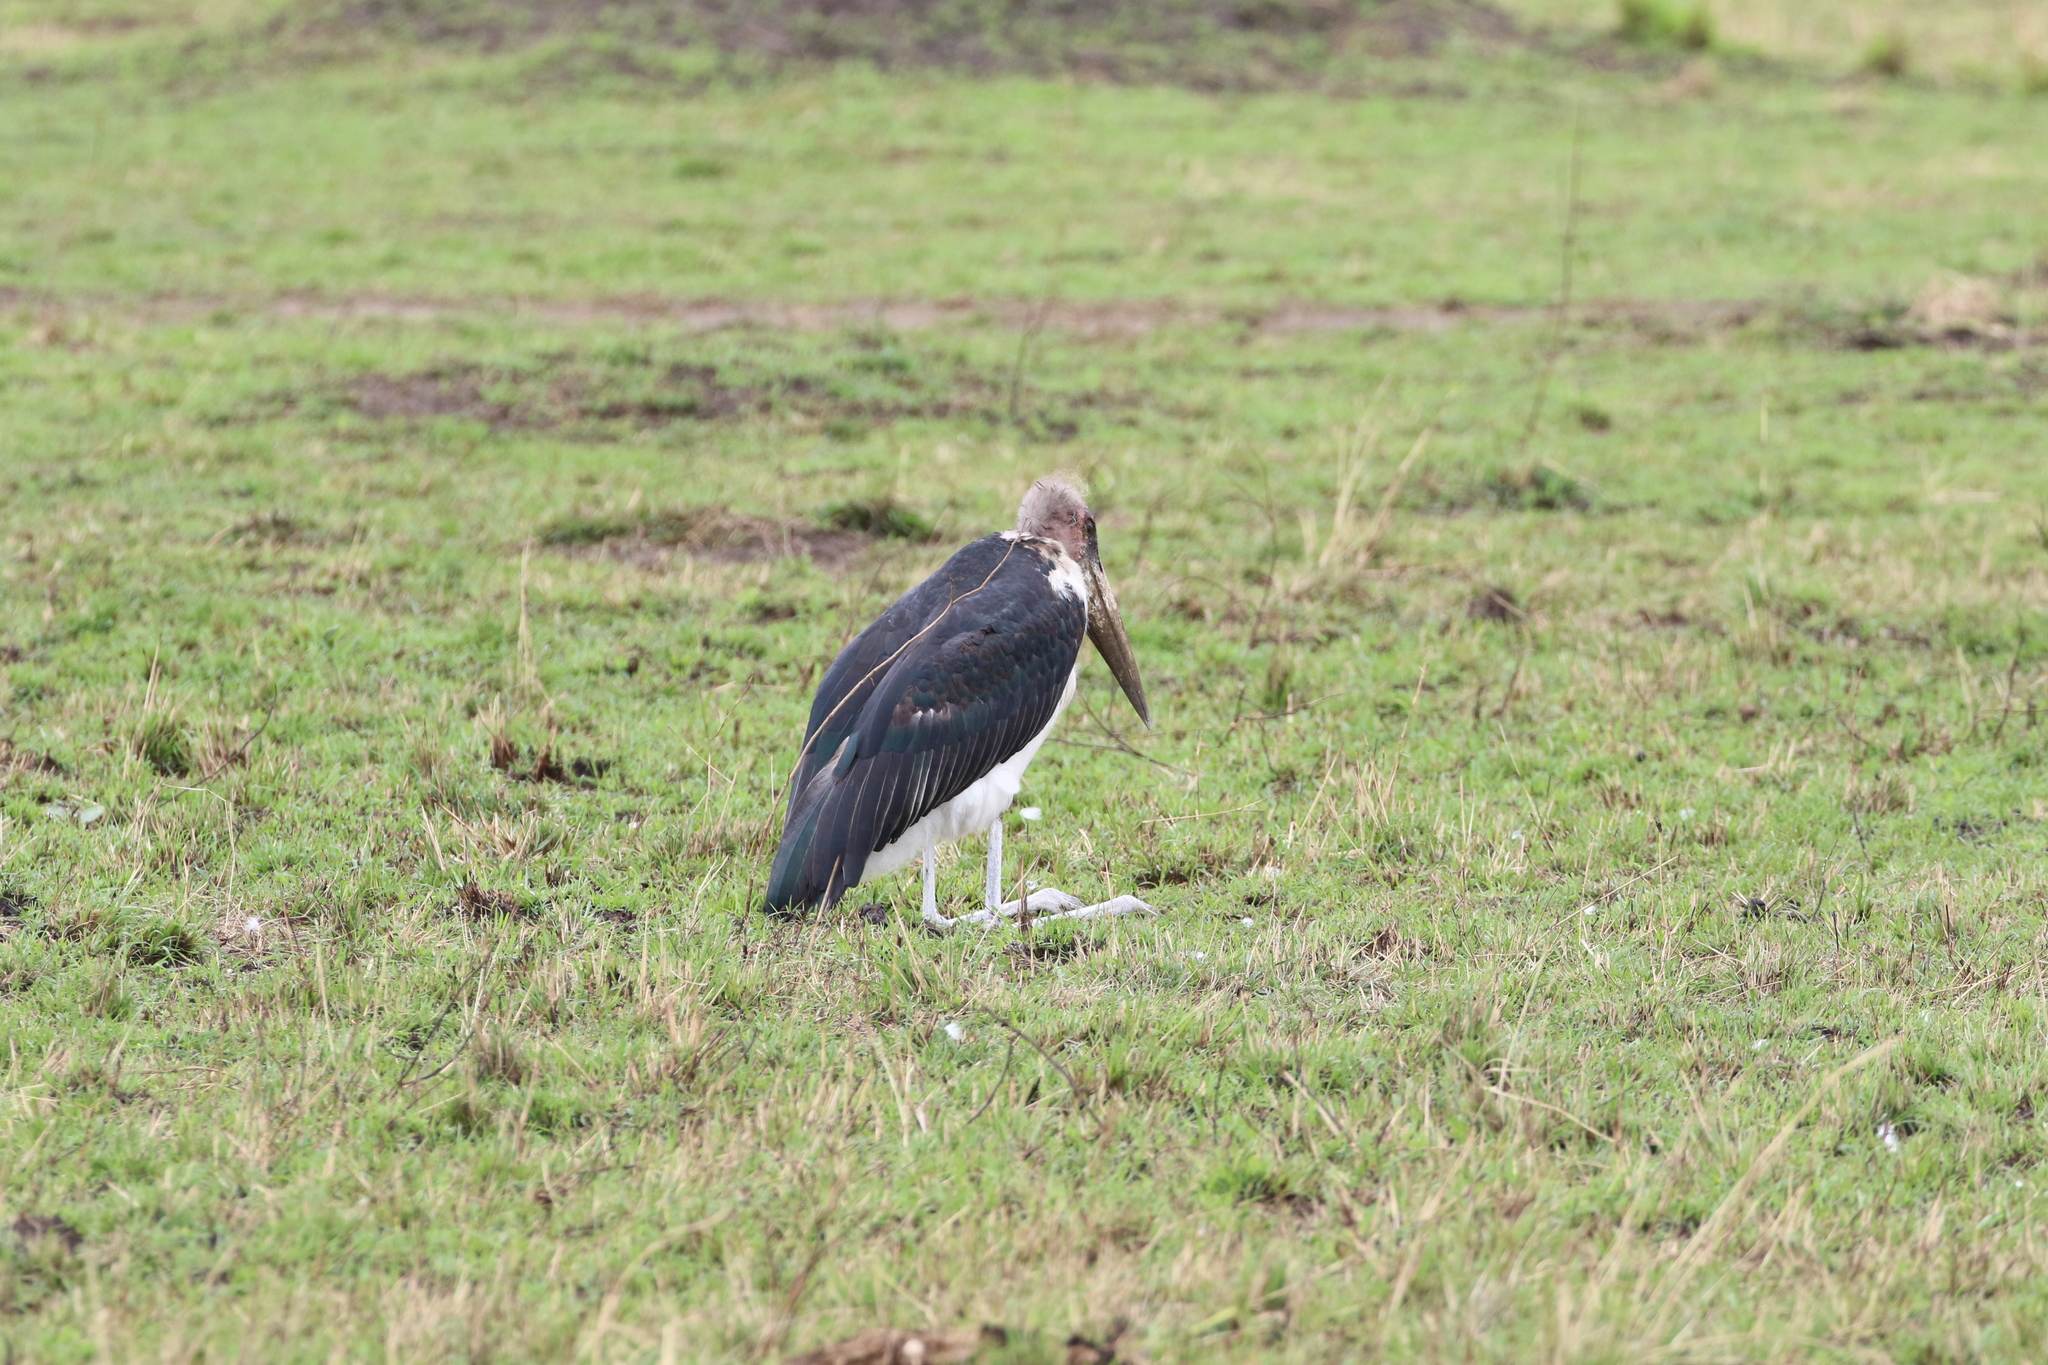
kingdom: Animalia
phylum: Chordata
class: Aves
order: Ciconiiformes
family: Ciconiidae
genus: Leptoptilos
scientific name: Leptoptilos crumenifer
